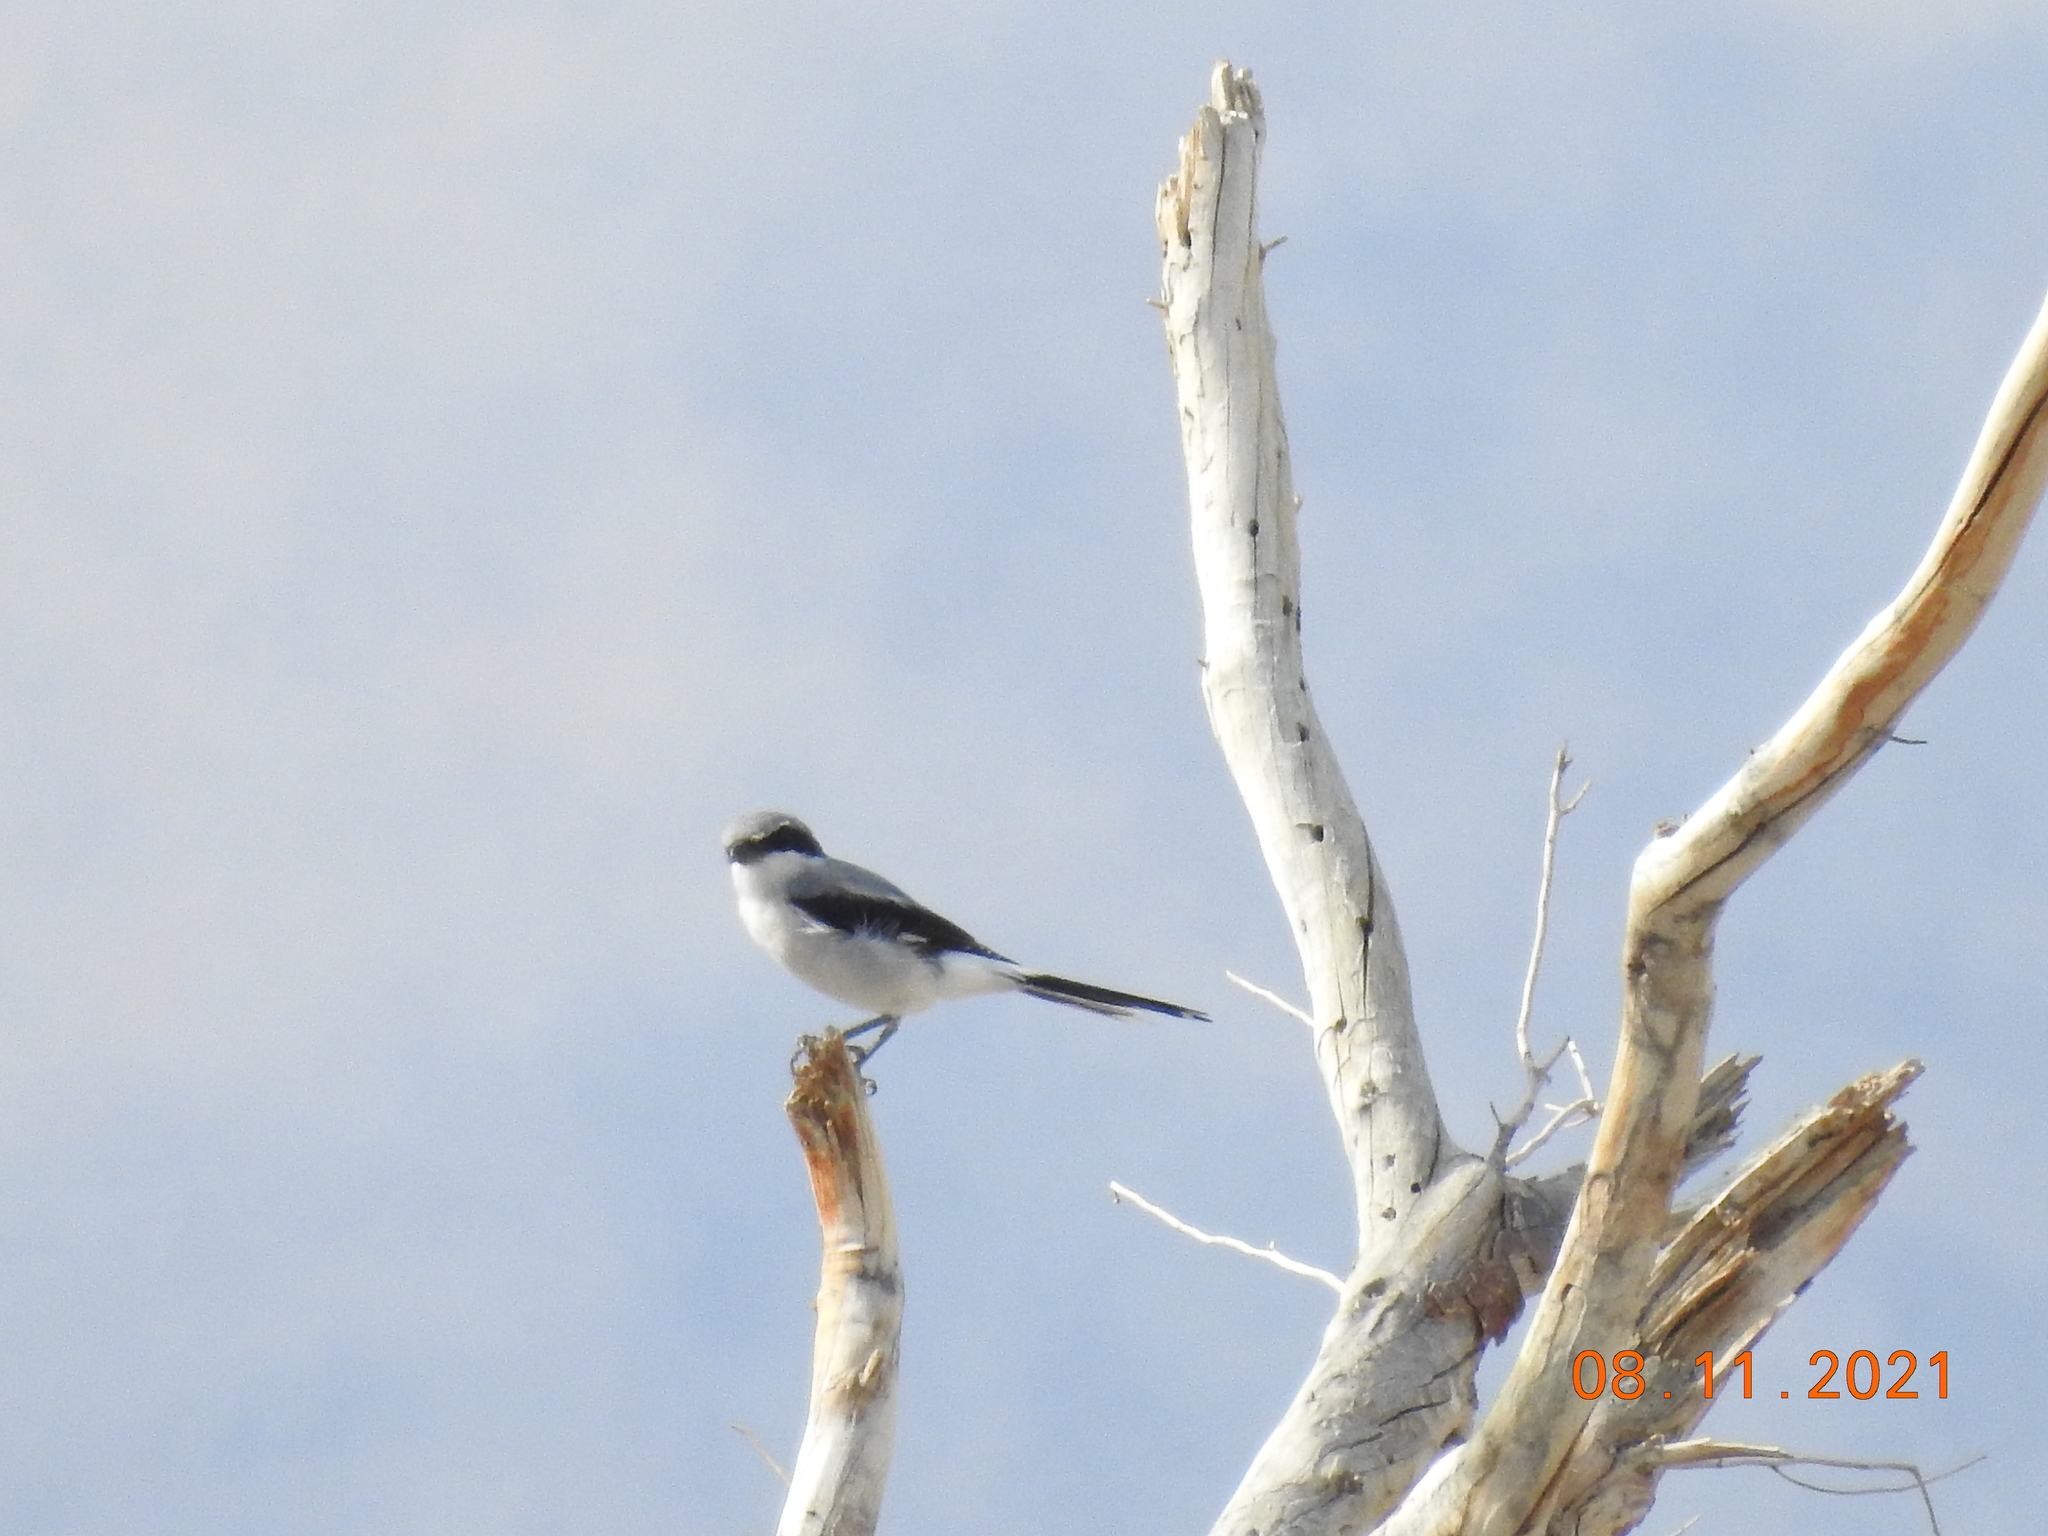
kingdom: Animalia
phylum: Chordata
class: Aves
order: Passeriformes
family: Laniidae
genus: Lanius
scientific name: Lanius ludovicianus
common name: Loggerhead shrike
